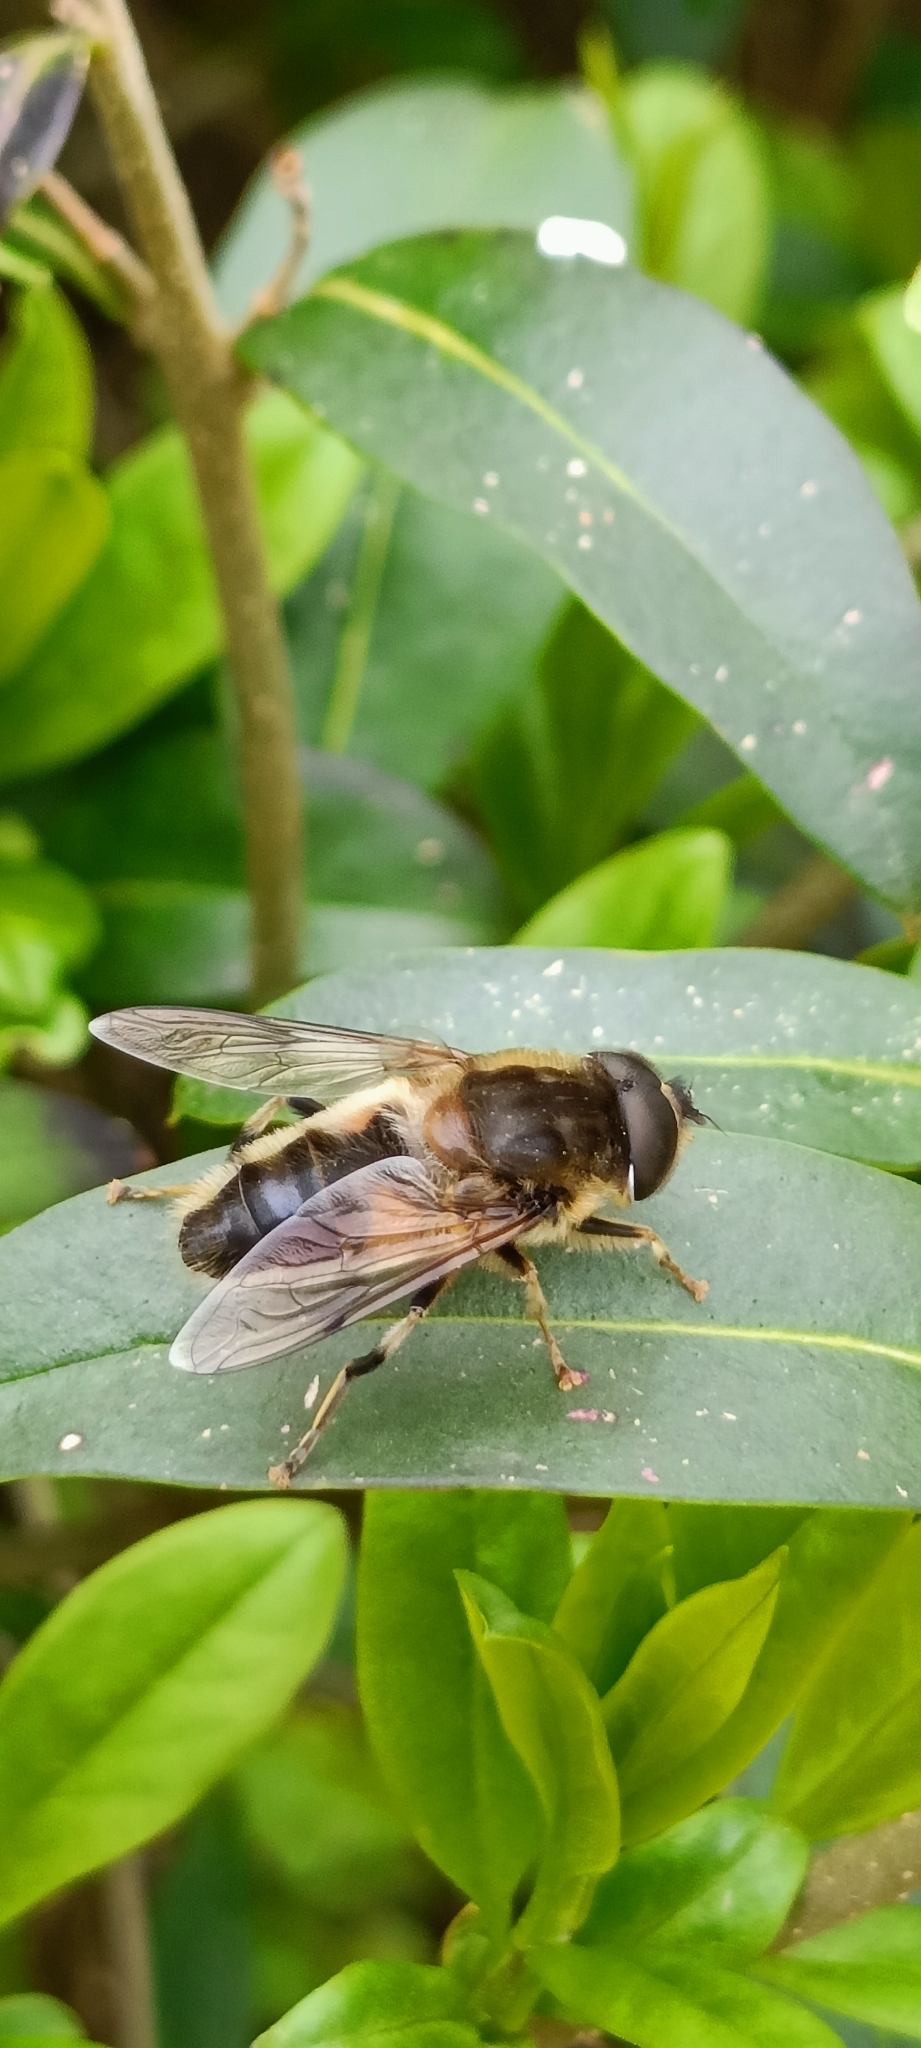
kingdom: Animalia
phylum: Arthropoda
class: Insecta
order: Diptera
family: Syrphidae
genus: Eristalis
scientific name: Eristalis pertinax
